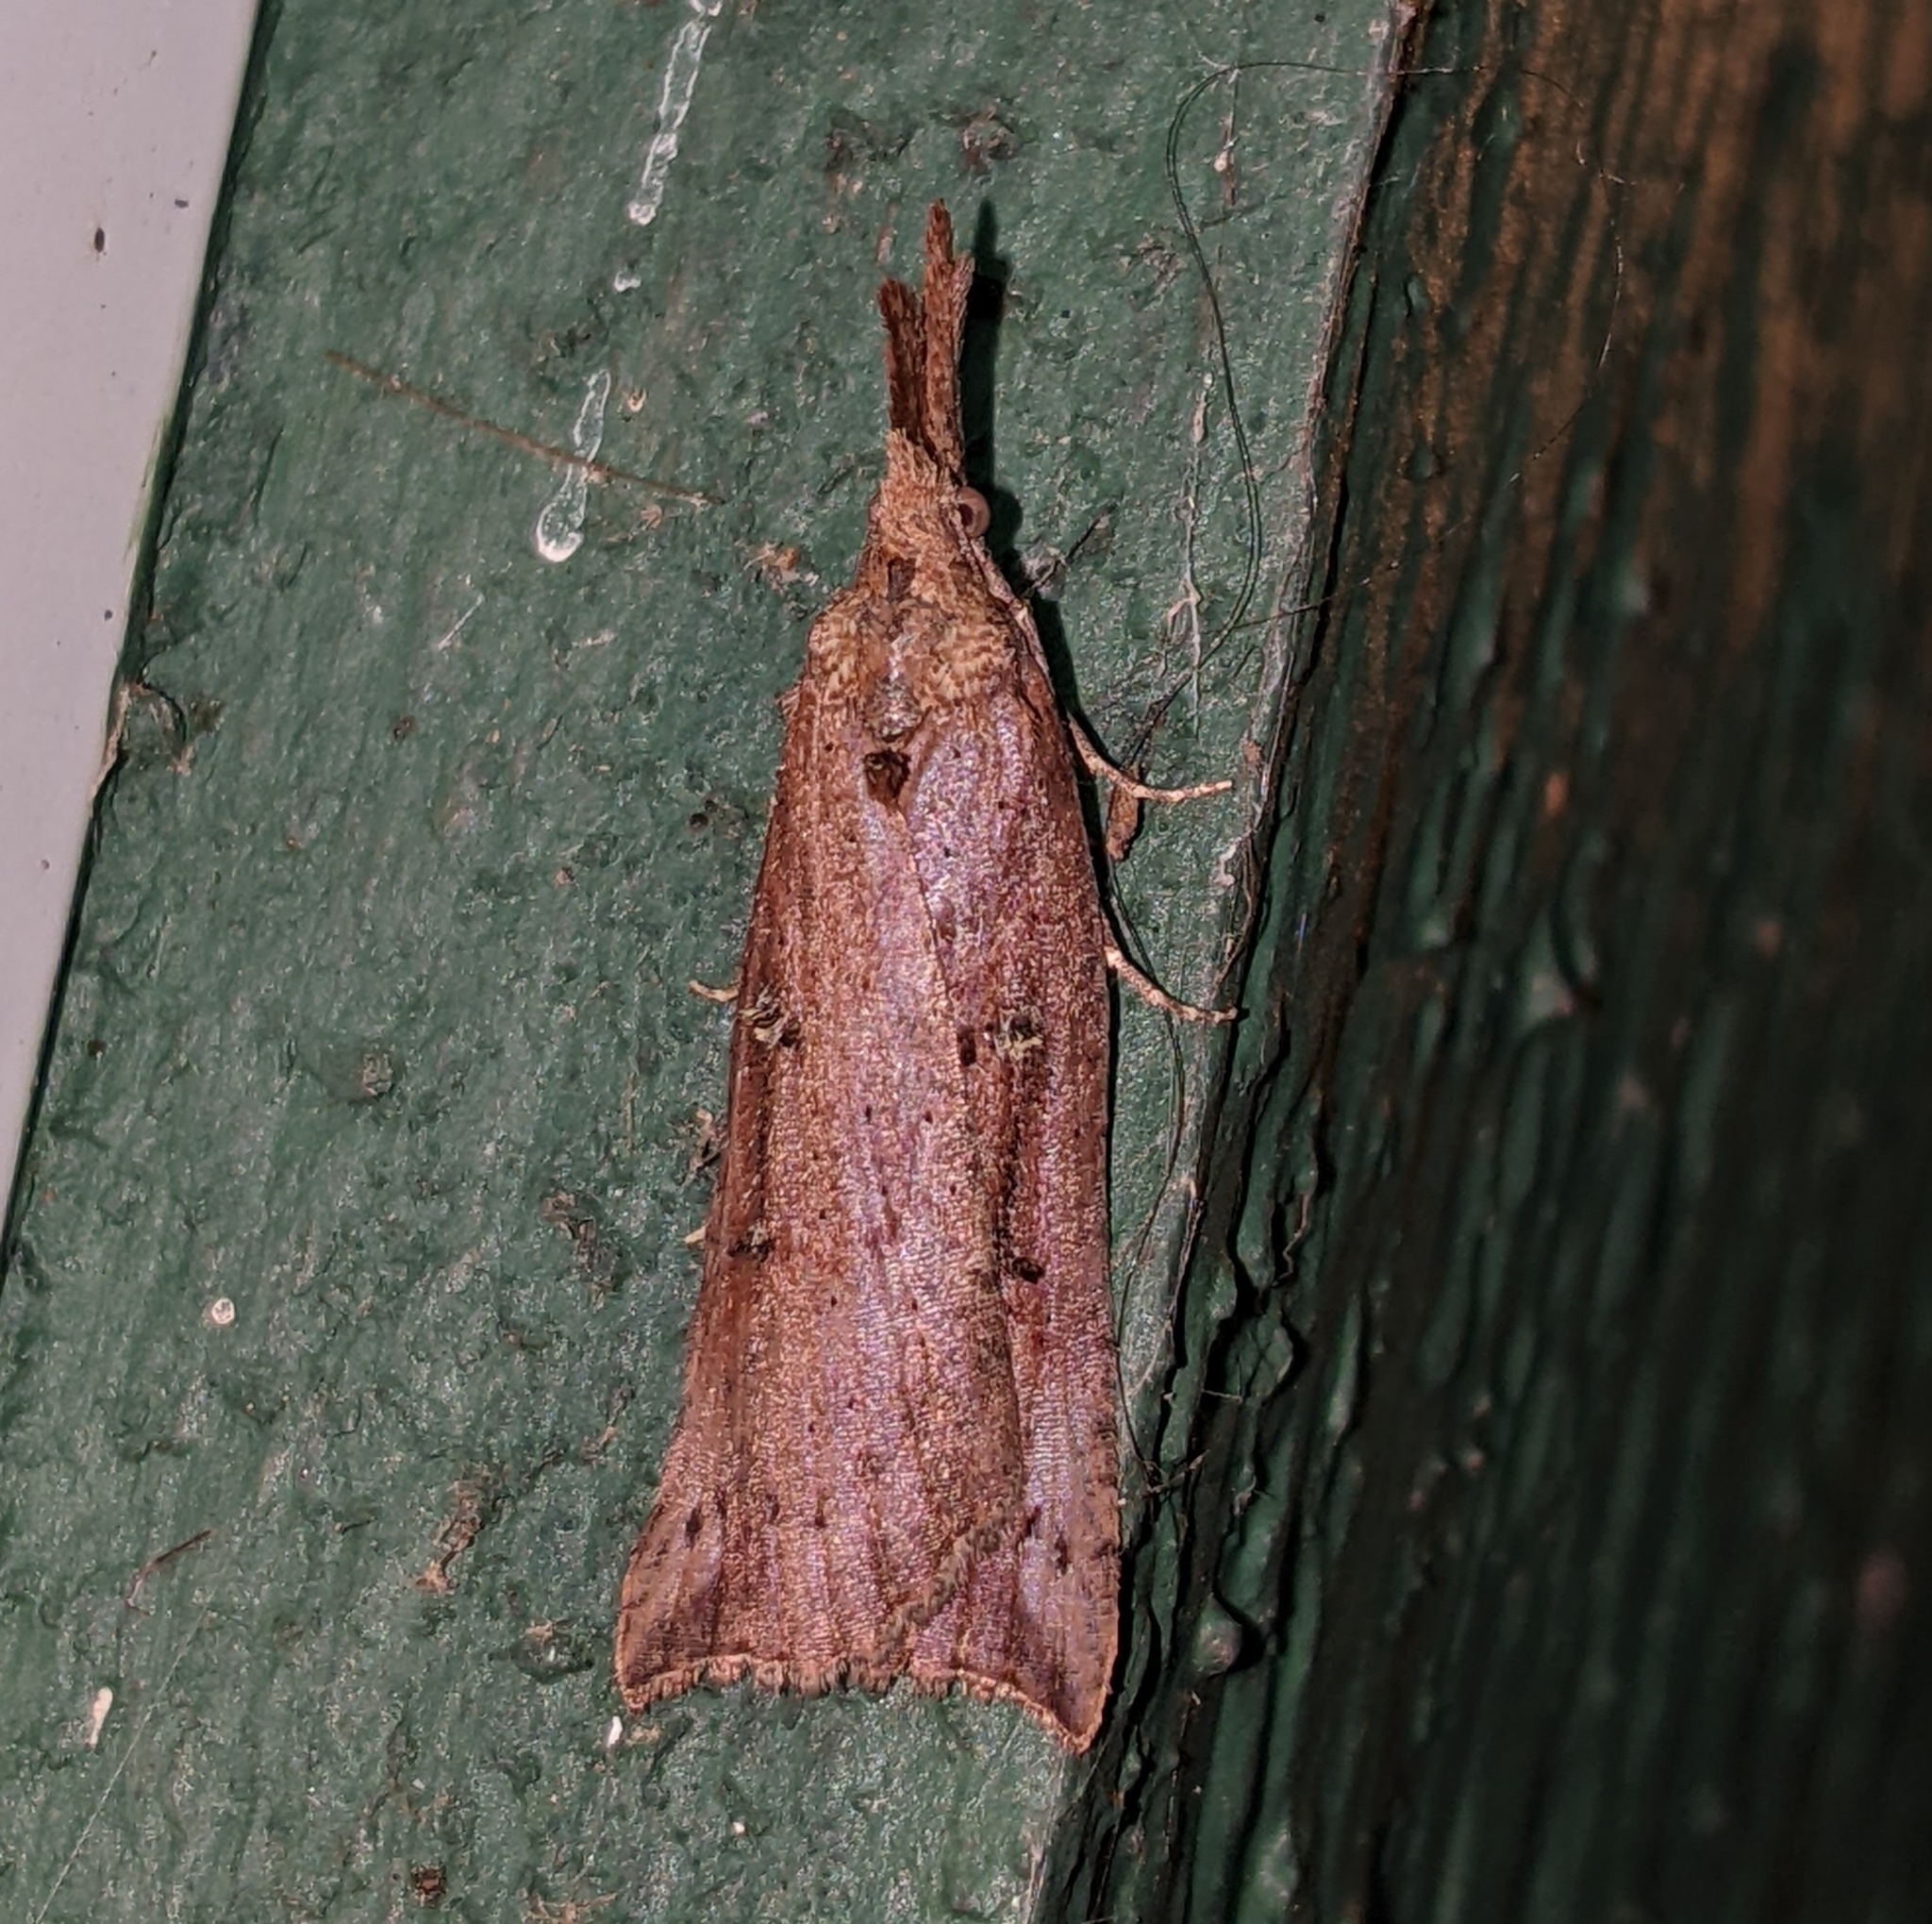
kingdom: Animalia
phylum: Arthropoda
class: Insecta
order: Lepidoptera
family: Erebidae
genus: Hypena
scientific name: Hypena californica
